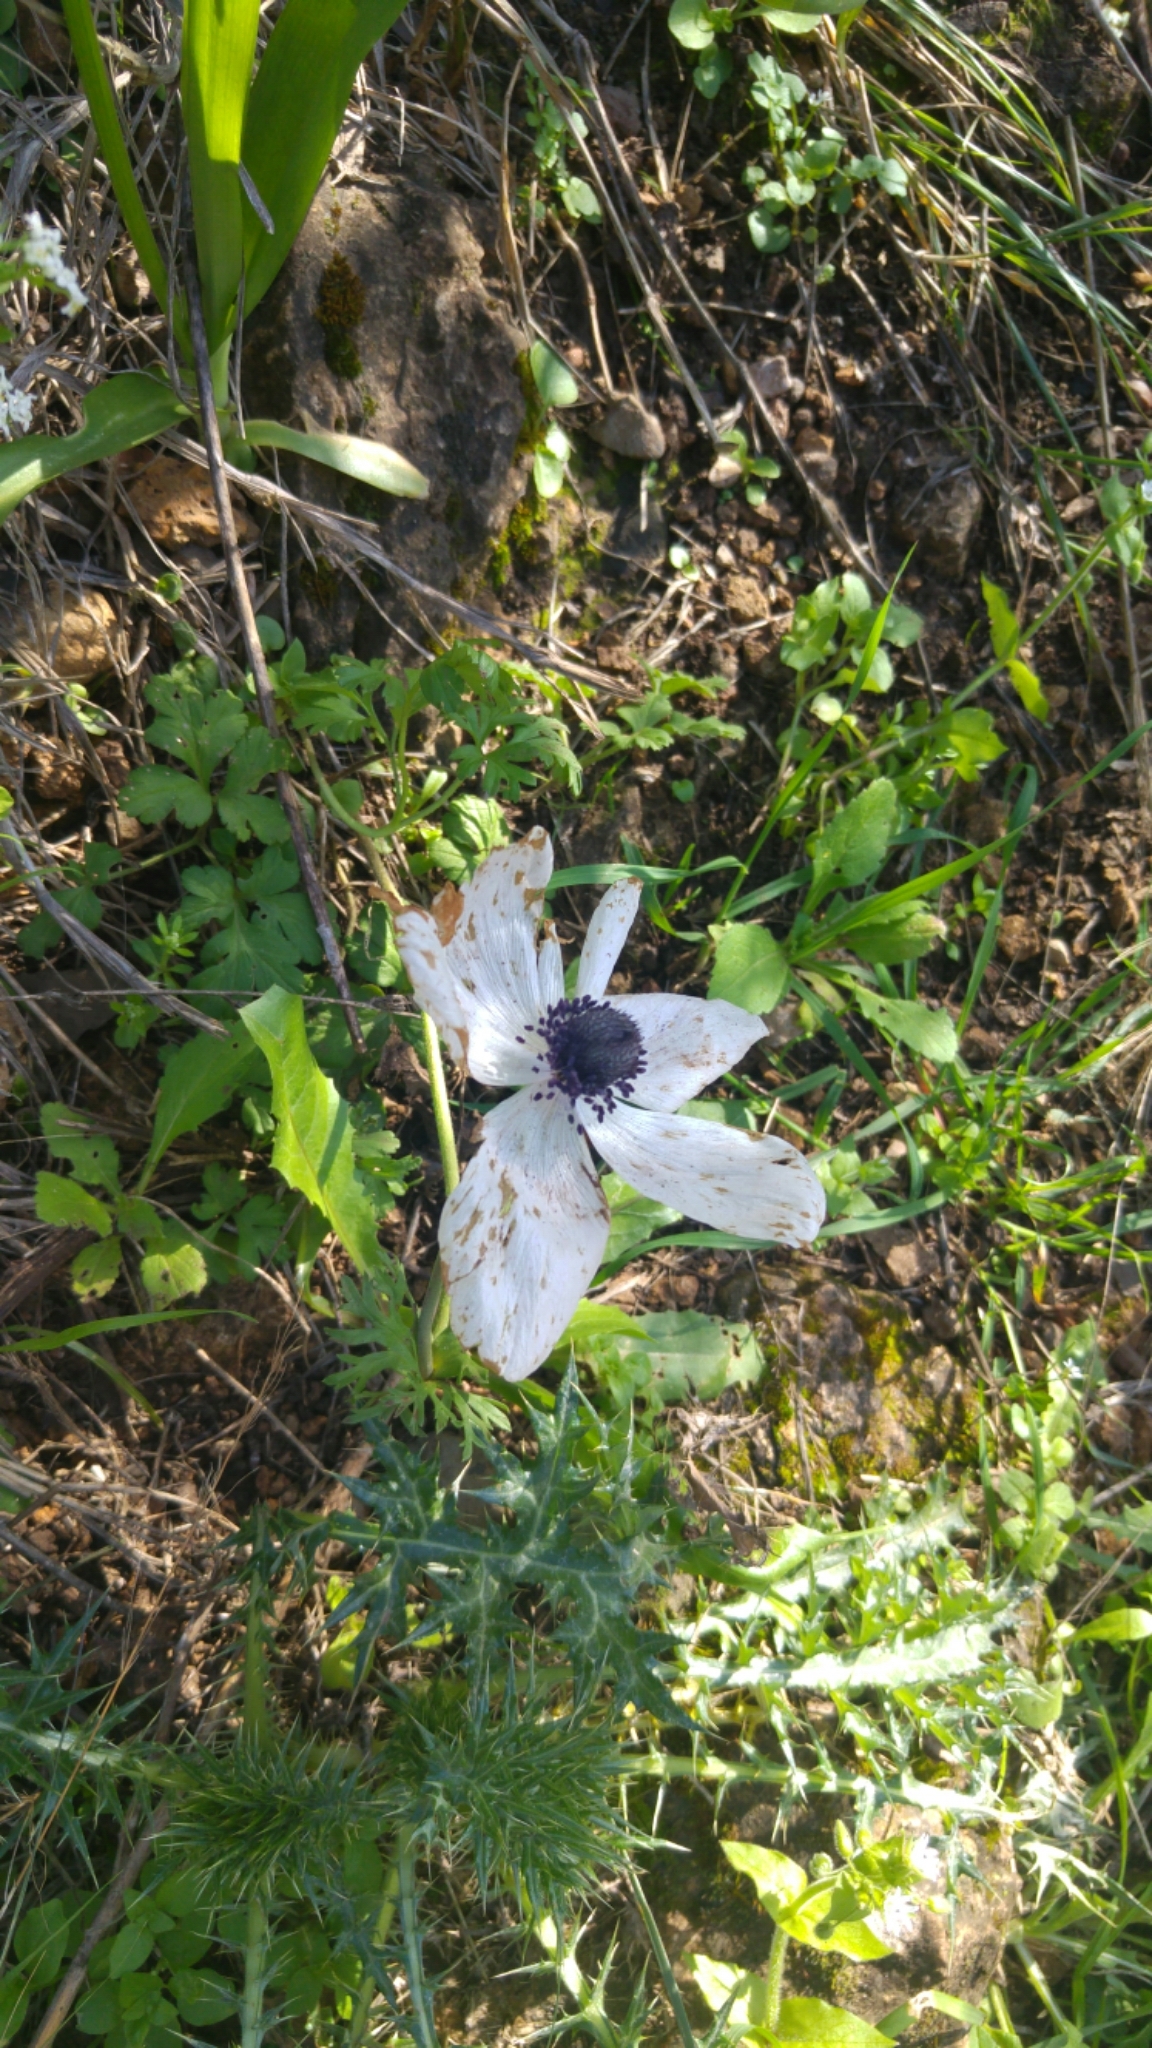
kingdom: Plantae
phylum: Tracheophyta
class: Magnoliopsida
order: Ranunculales
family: Ranunculaceae
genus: Anemone
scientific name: Anemone coronaria
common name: Poppy anemone
